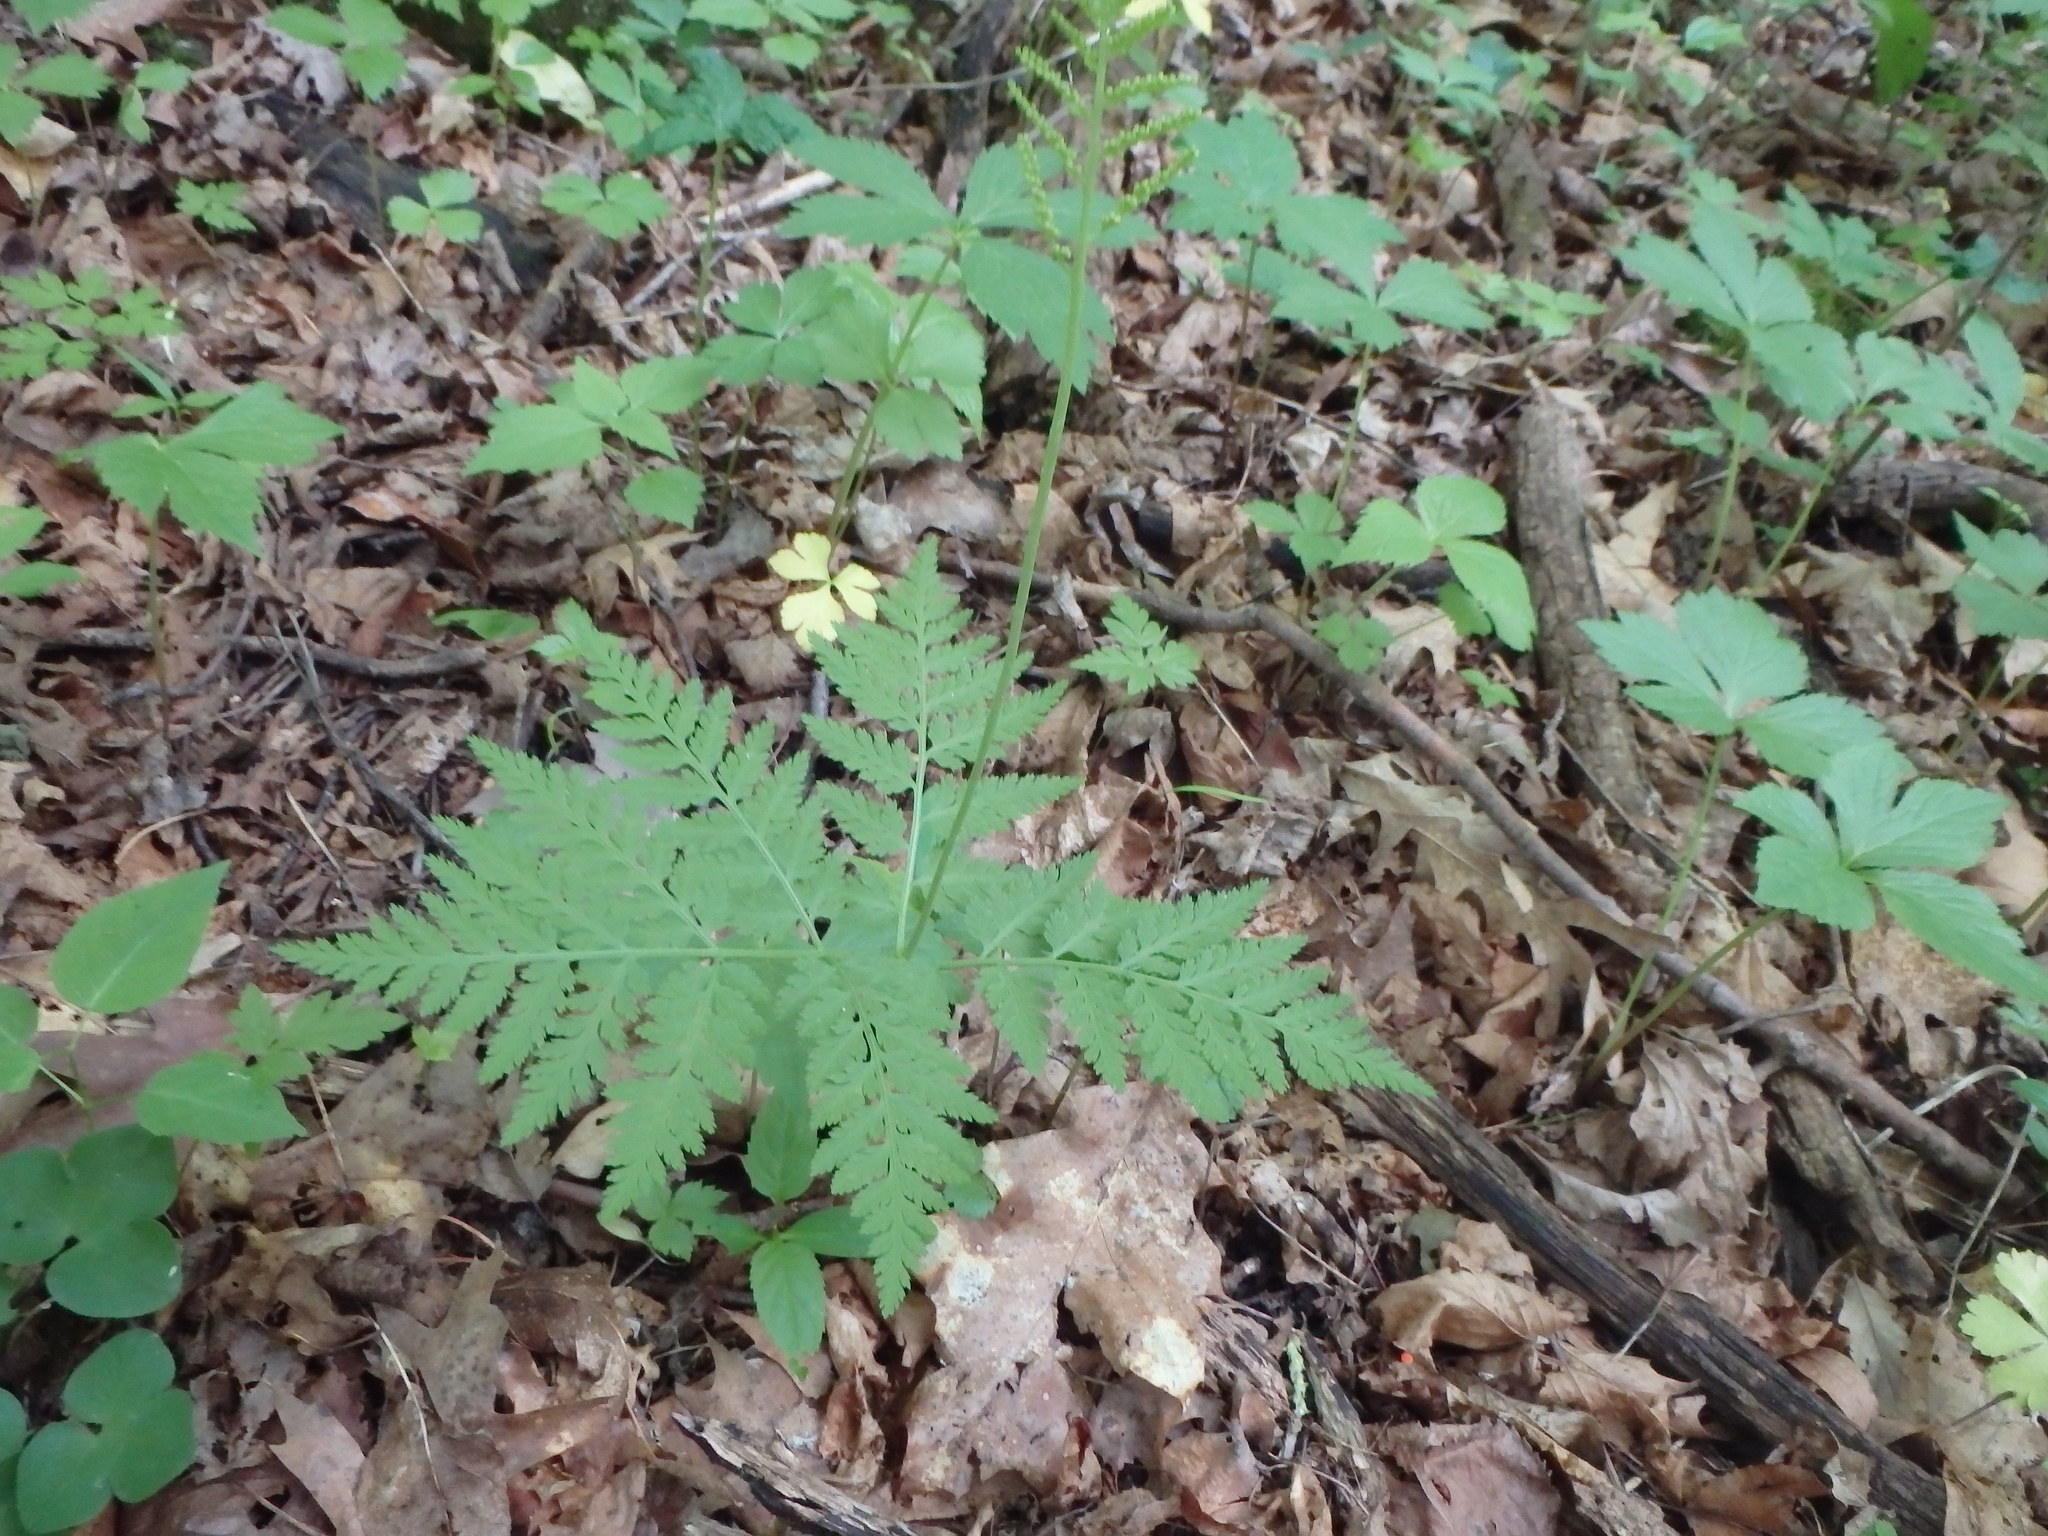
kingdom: Plantae
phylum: Tracheophyta
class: Polypodiopsida
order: Ophioglossales
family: Ophioglossaceae
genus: Botrypus
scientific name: Botrypus virginianus
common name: Common grapefern
